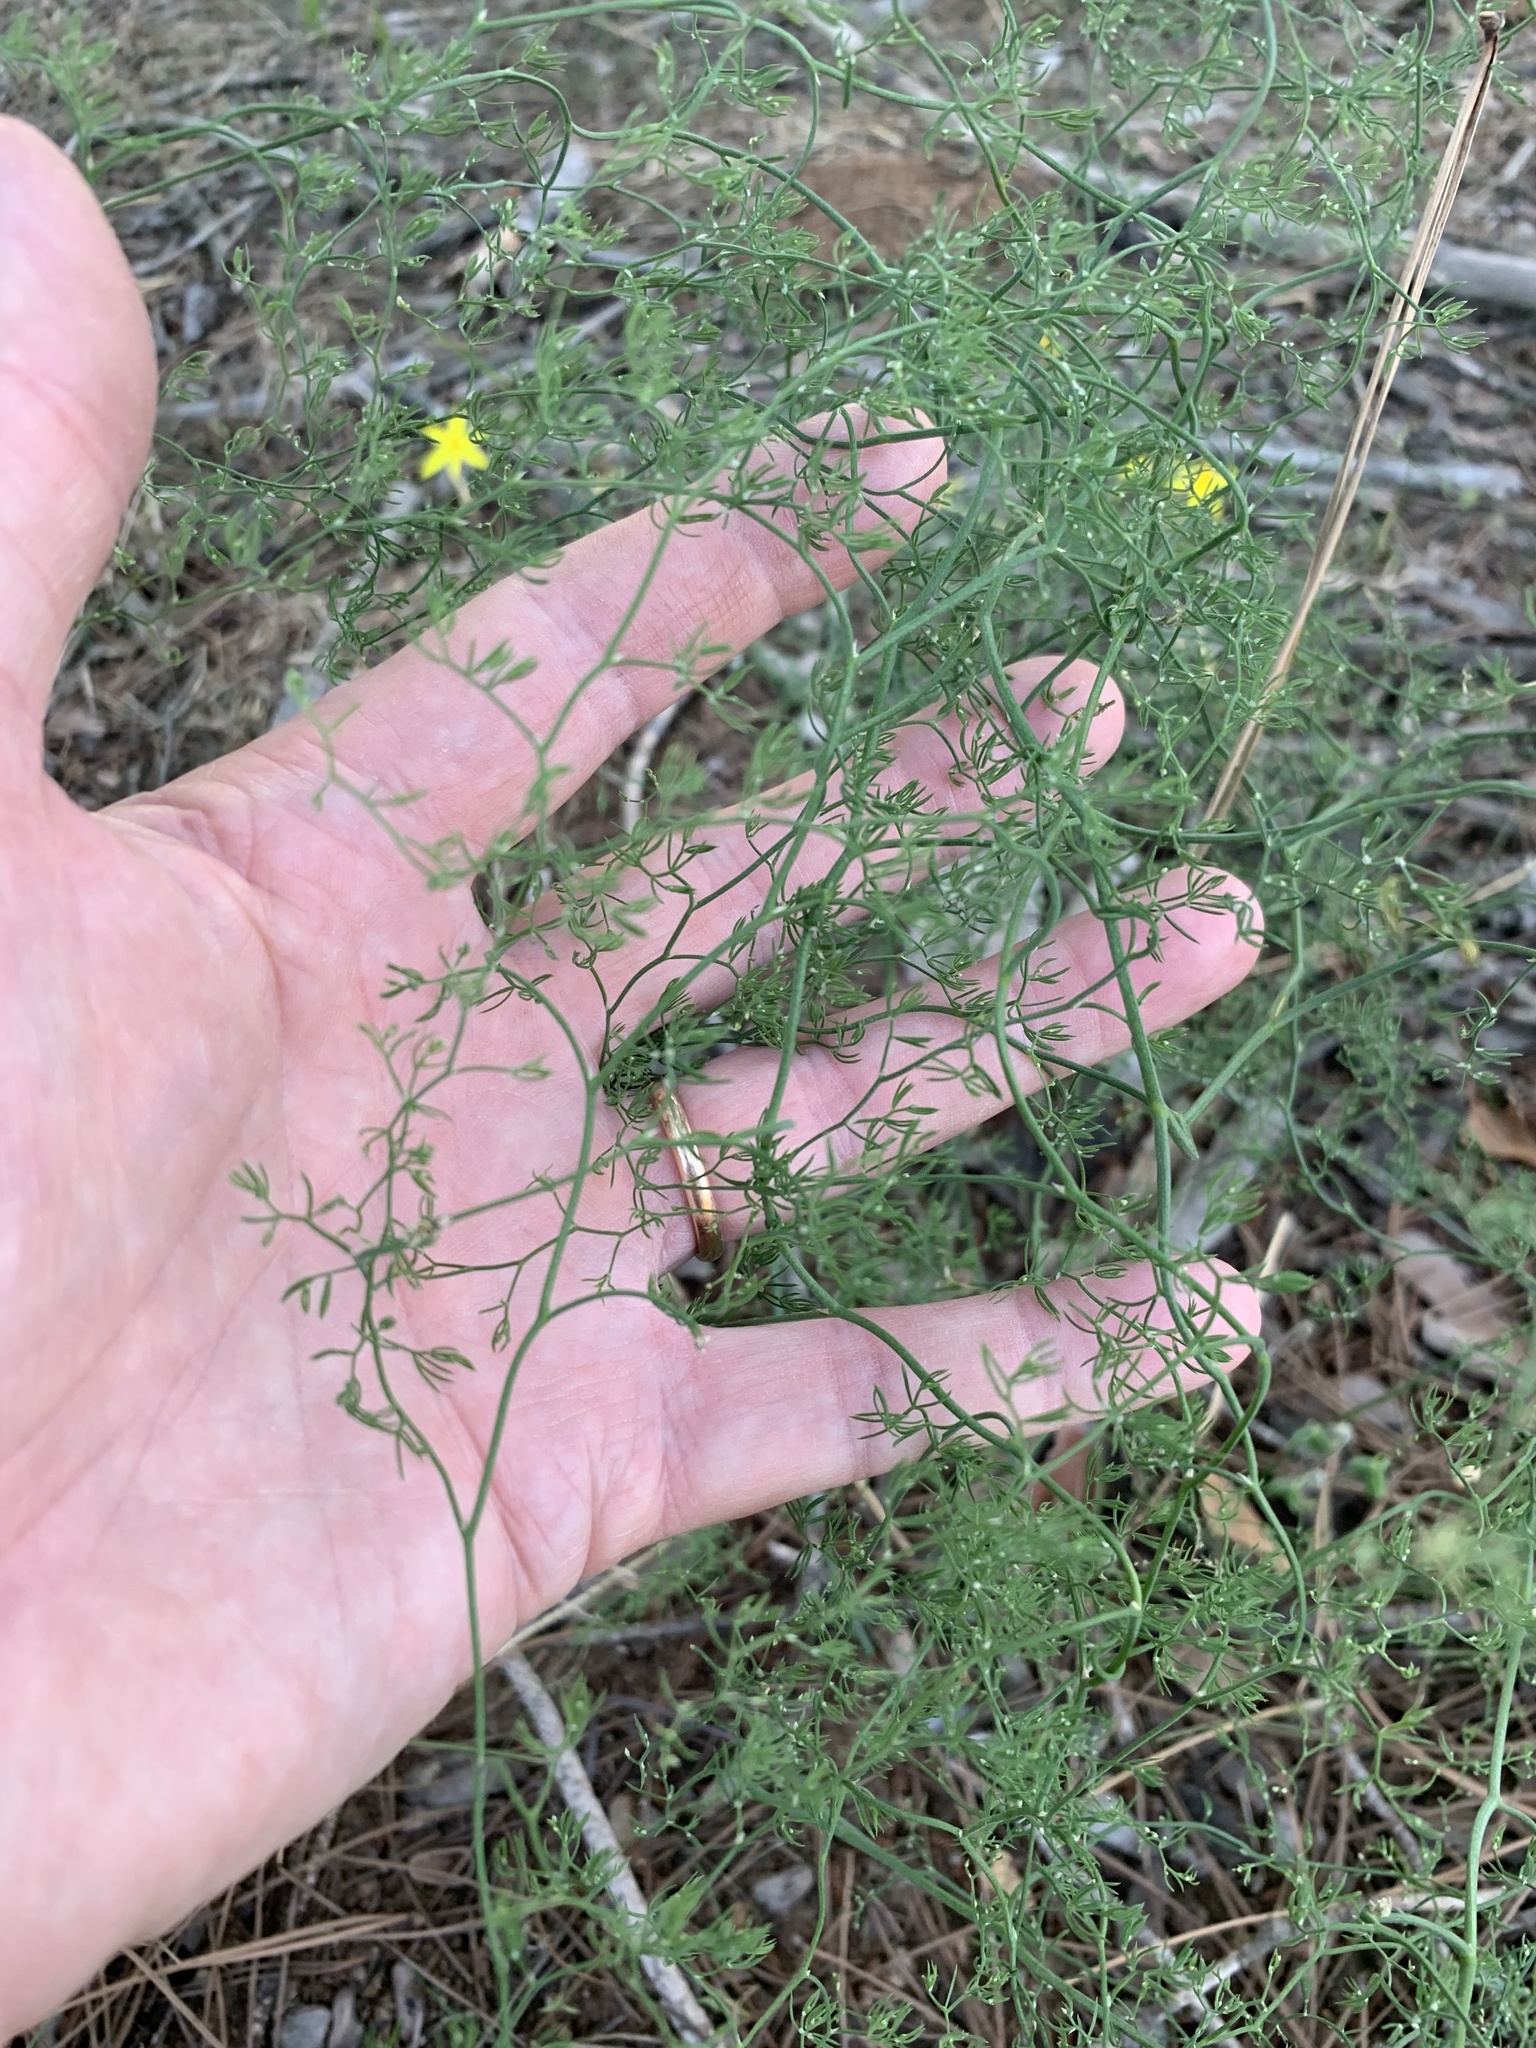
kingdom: Plantae
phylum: Tracheophyta
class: Liliopsida
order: Asparagales
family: Asparagaceae
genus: Asparagus
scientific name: Asparagus declinatus
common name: Bridal-creeper
